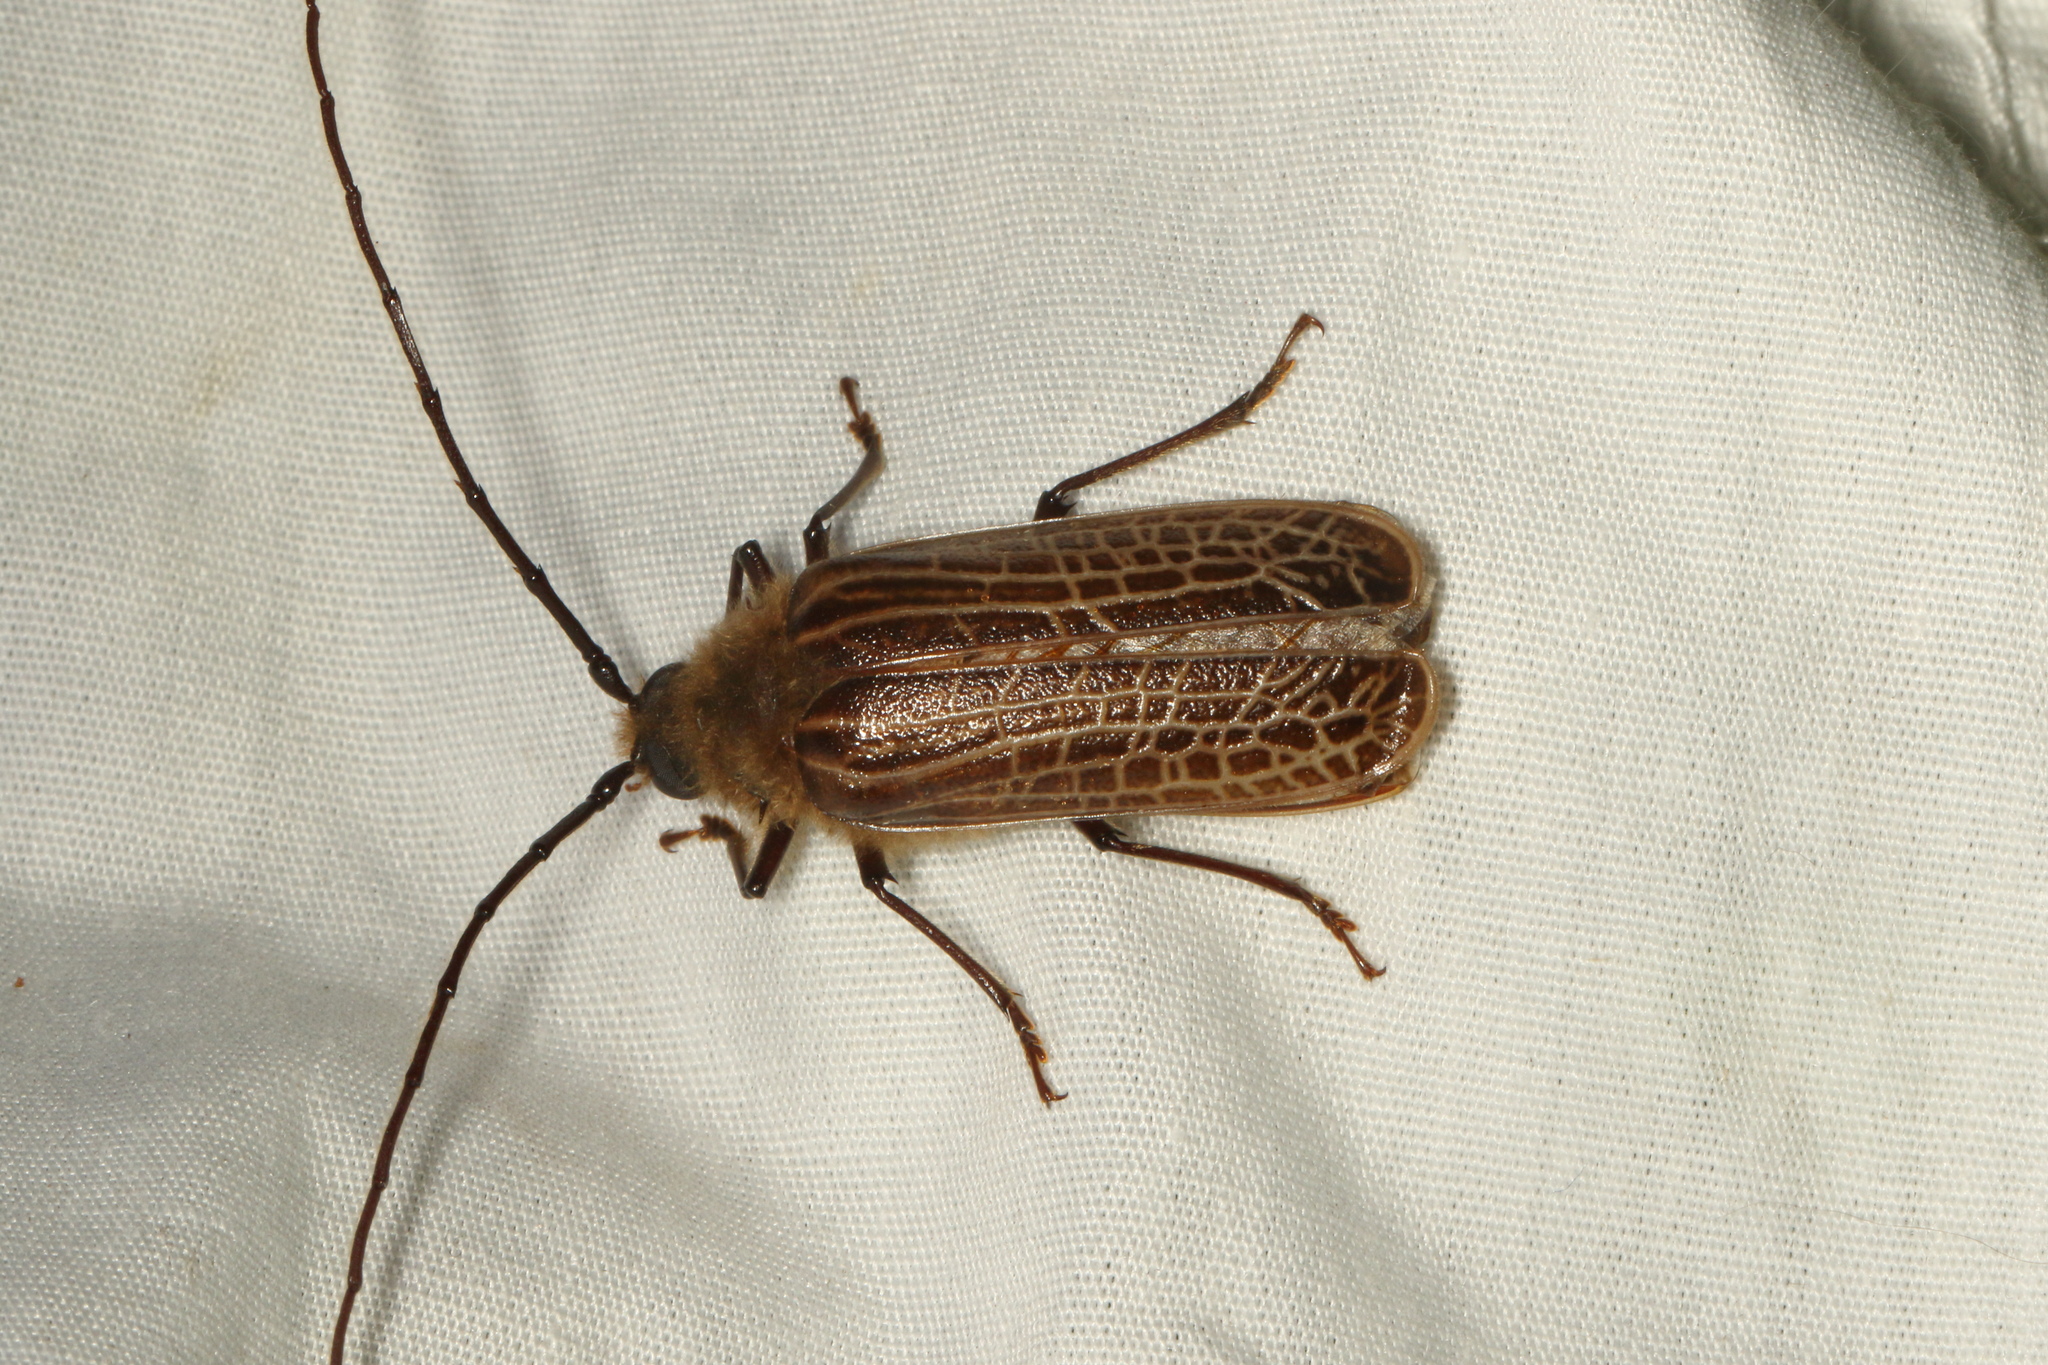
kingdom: Animalia
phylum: Arthropoda
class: Insecta
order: Coleoptera
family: Cerambycidae
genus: Prionoplus
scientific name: Prionoplus reticularis
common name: Huhu beetle
